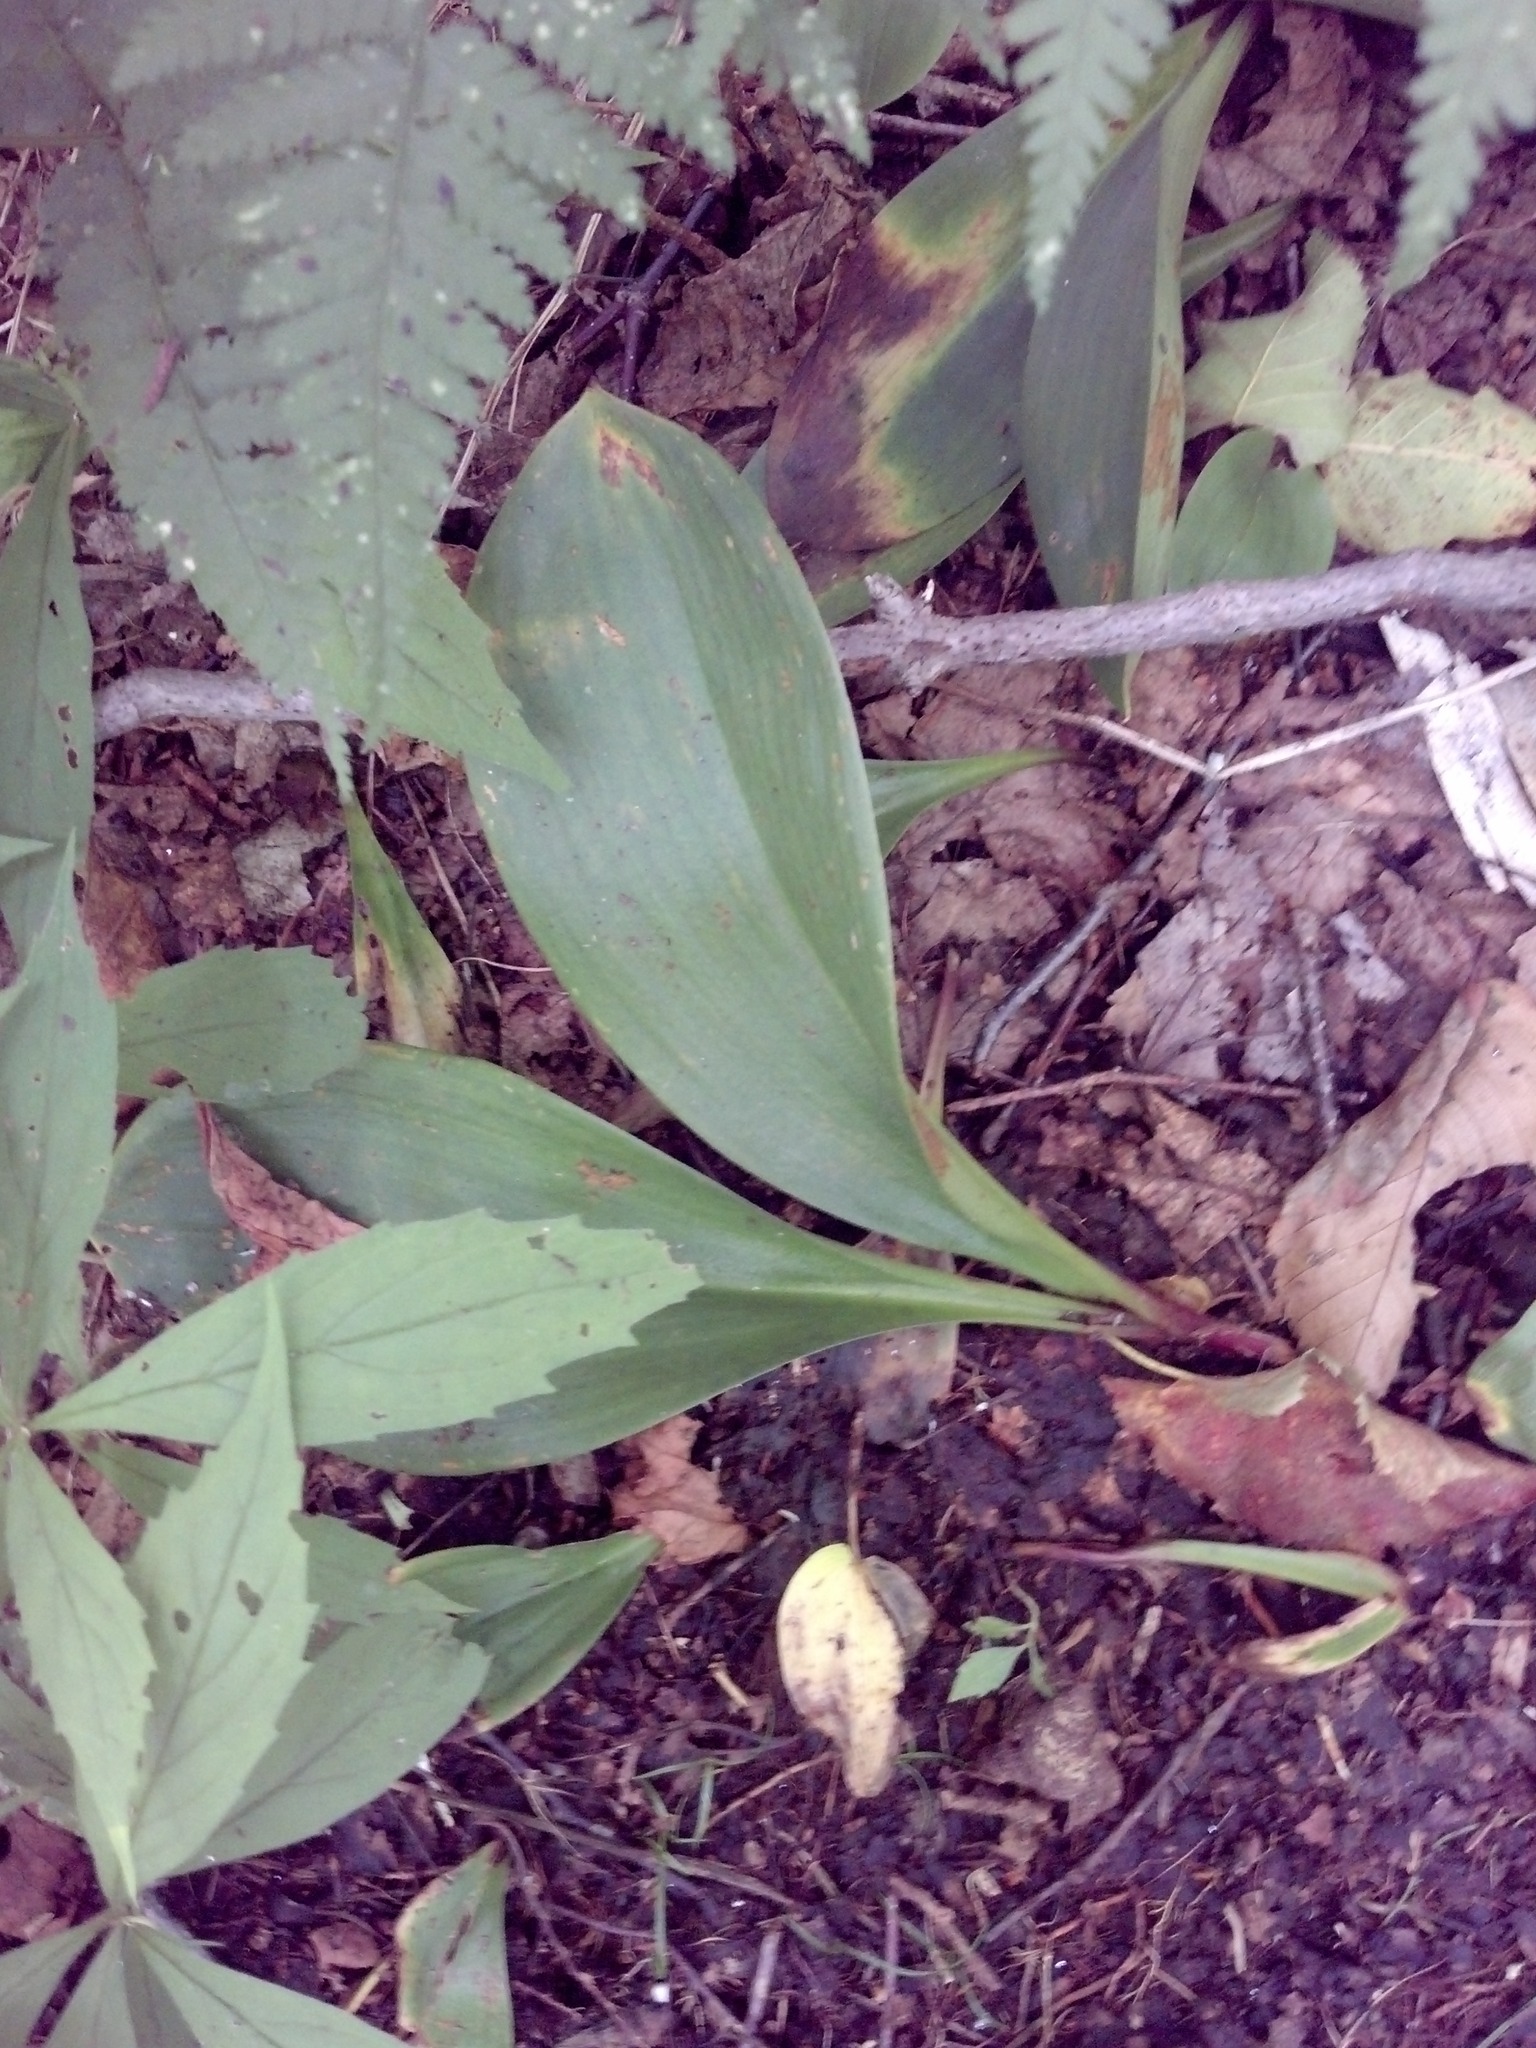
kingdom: Plantae
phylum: Tracheophyta
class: Liliopsida
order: Liliales
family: Liliaceae
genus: Clintonia
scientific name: Clintonia borealis
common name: Yellow clintonia
